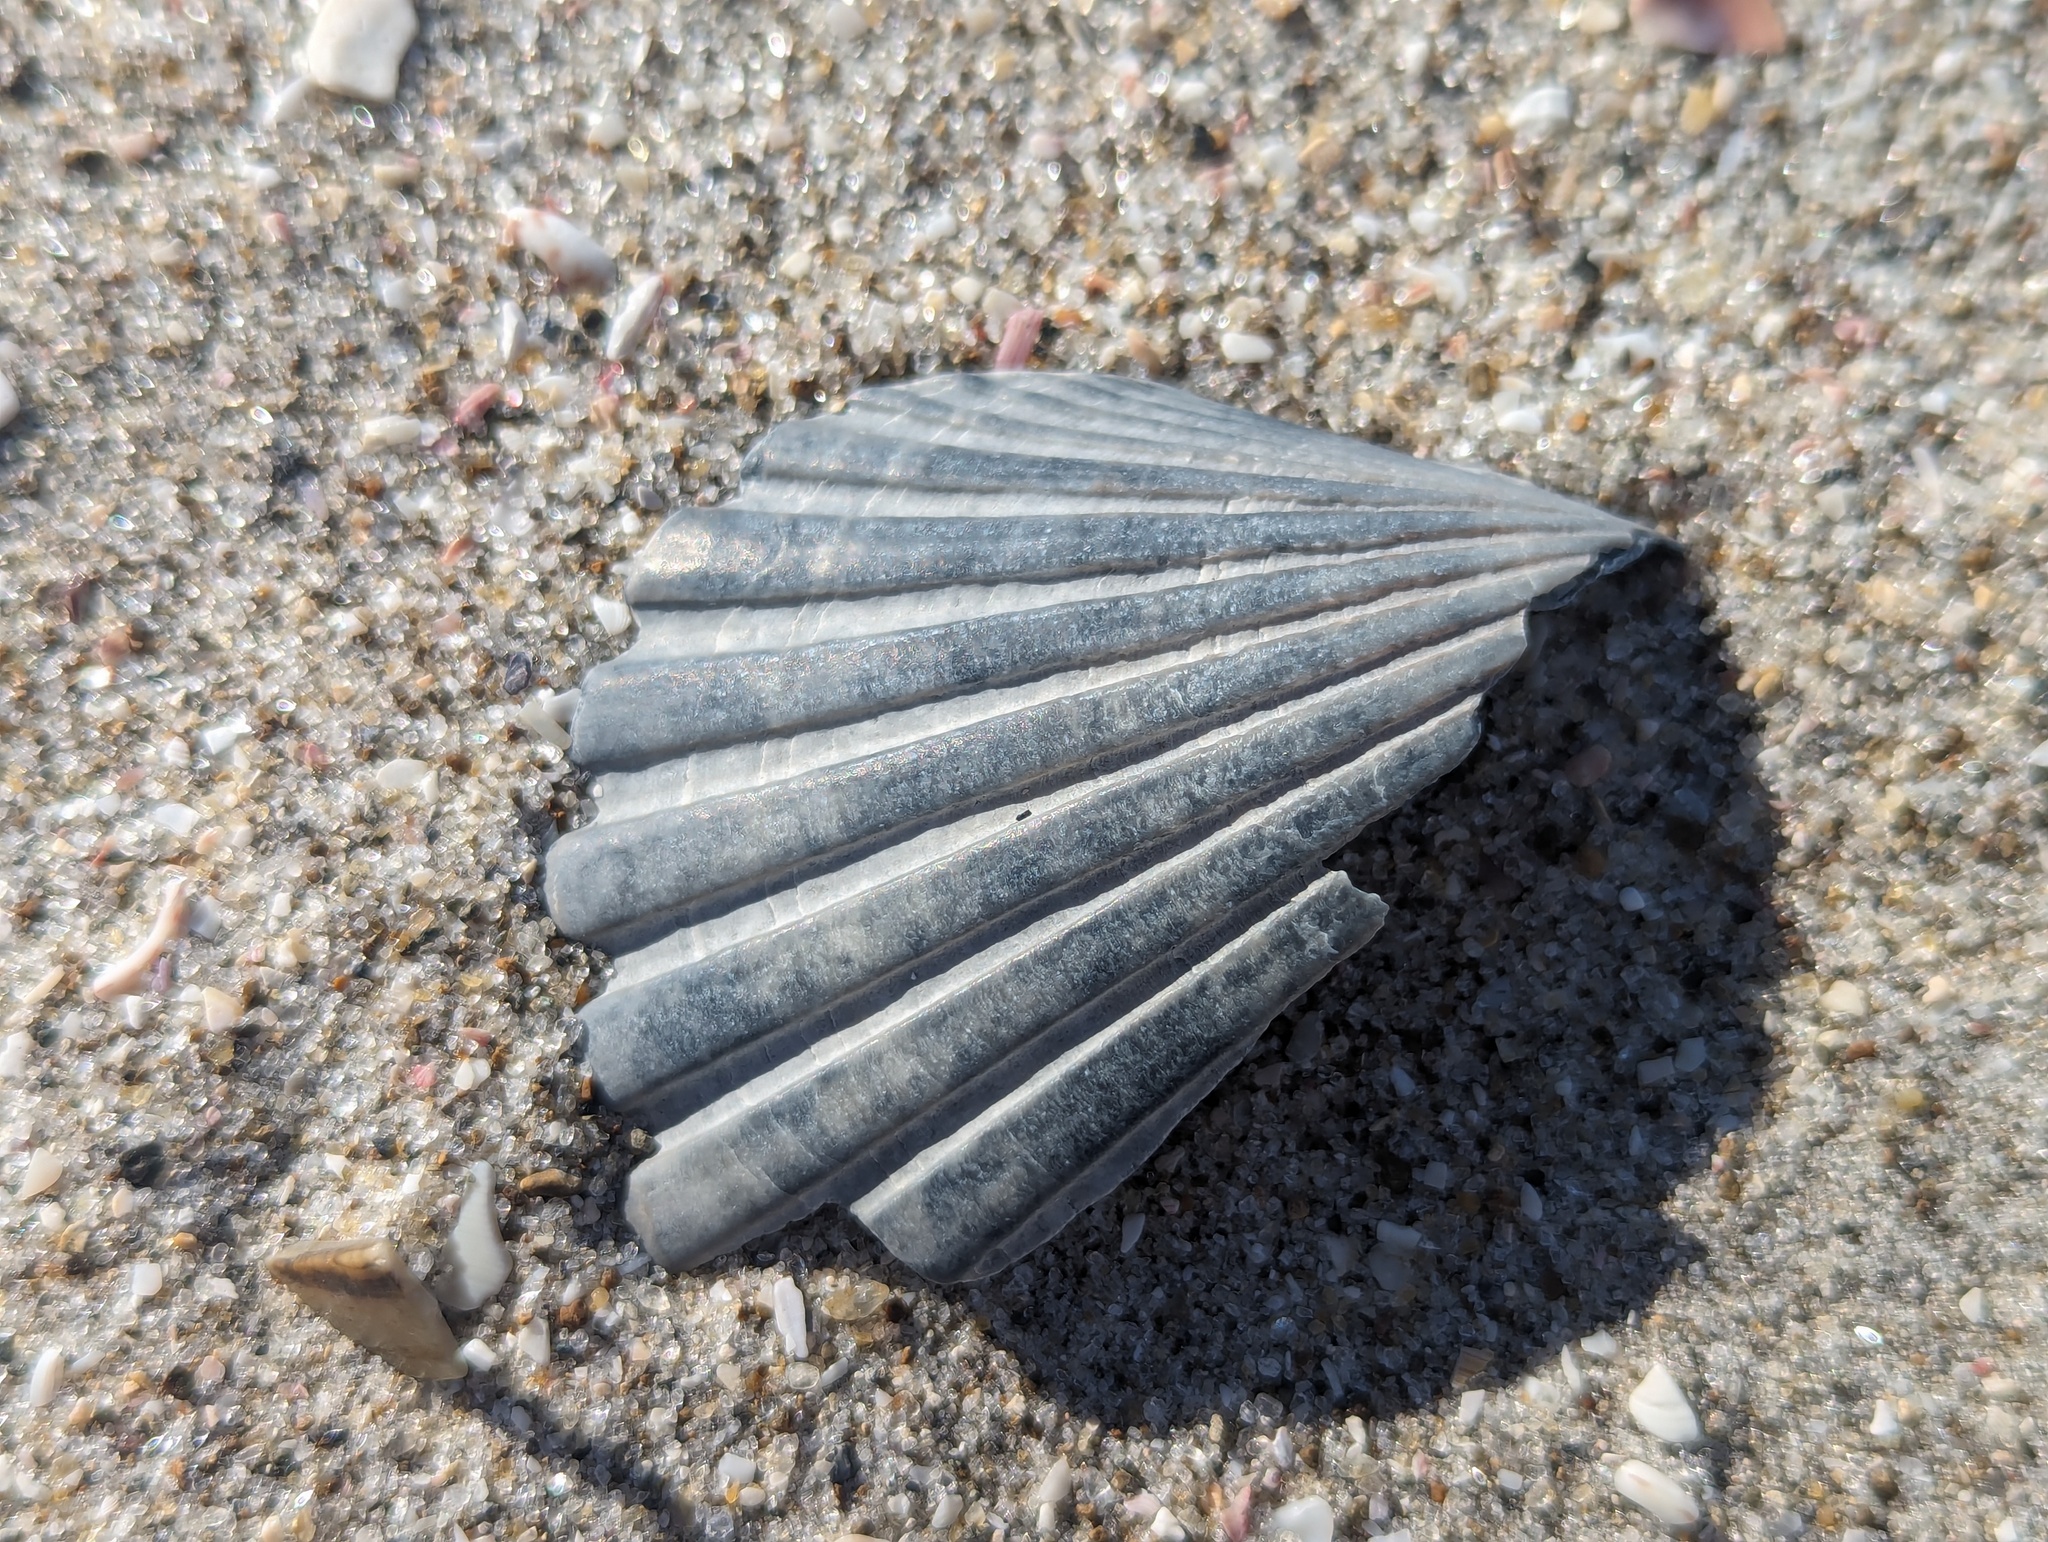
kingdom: Animalia
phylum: Mollusca
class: Bivalvia
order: Pectinida
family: Pectinidae
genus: Pecten
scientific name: Pecten novaezelandiae
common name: New zealand scallop
